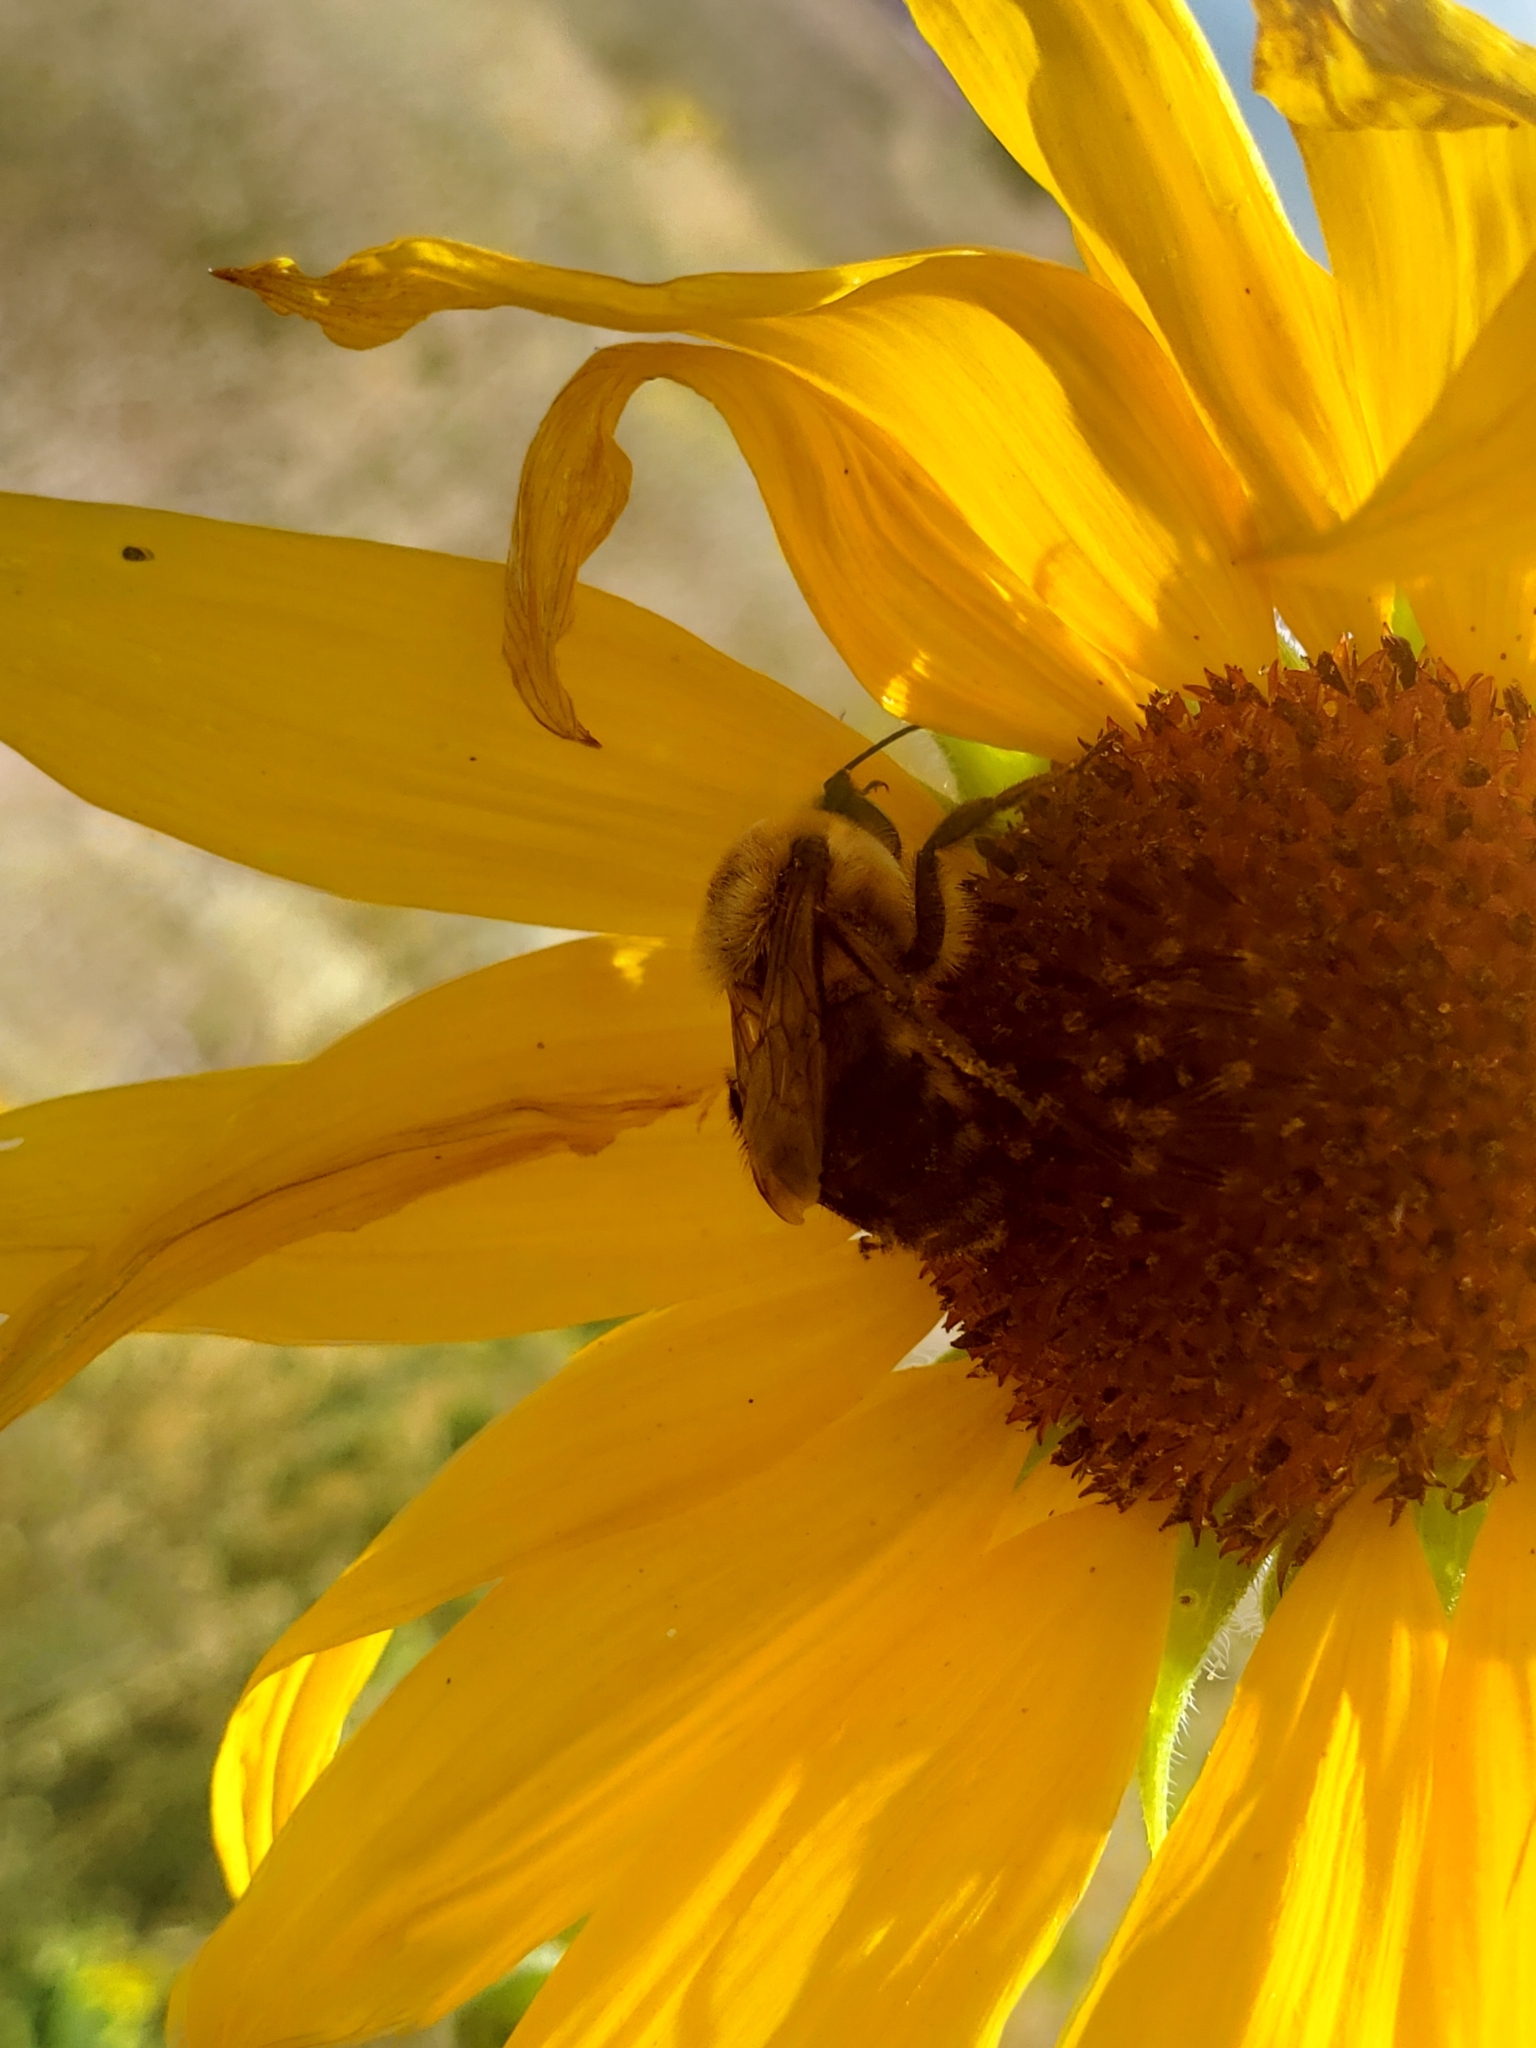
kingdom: Animalia
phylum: Arthropoda
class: Insecta
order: Hymenoptera
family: Apidae
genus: Bombus
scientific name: Bombus griseocollis
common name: Brown-belted bumble bee
